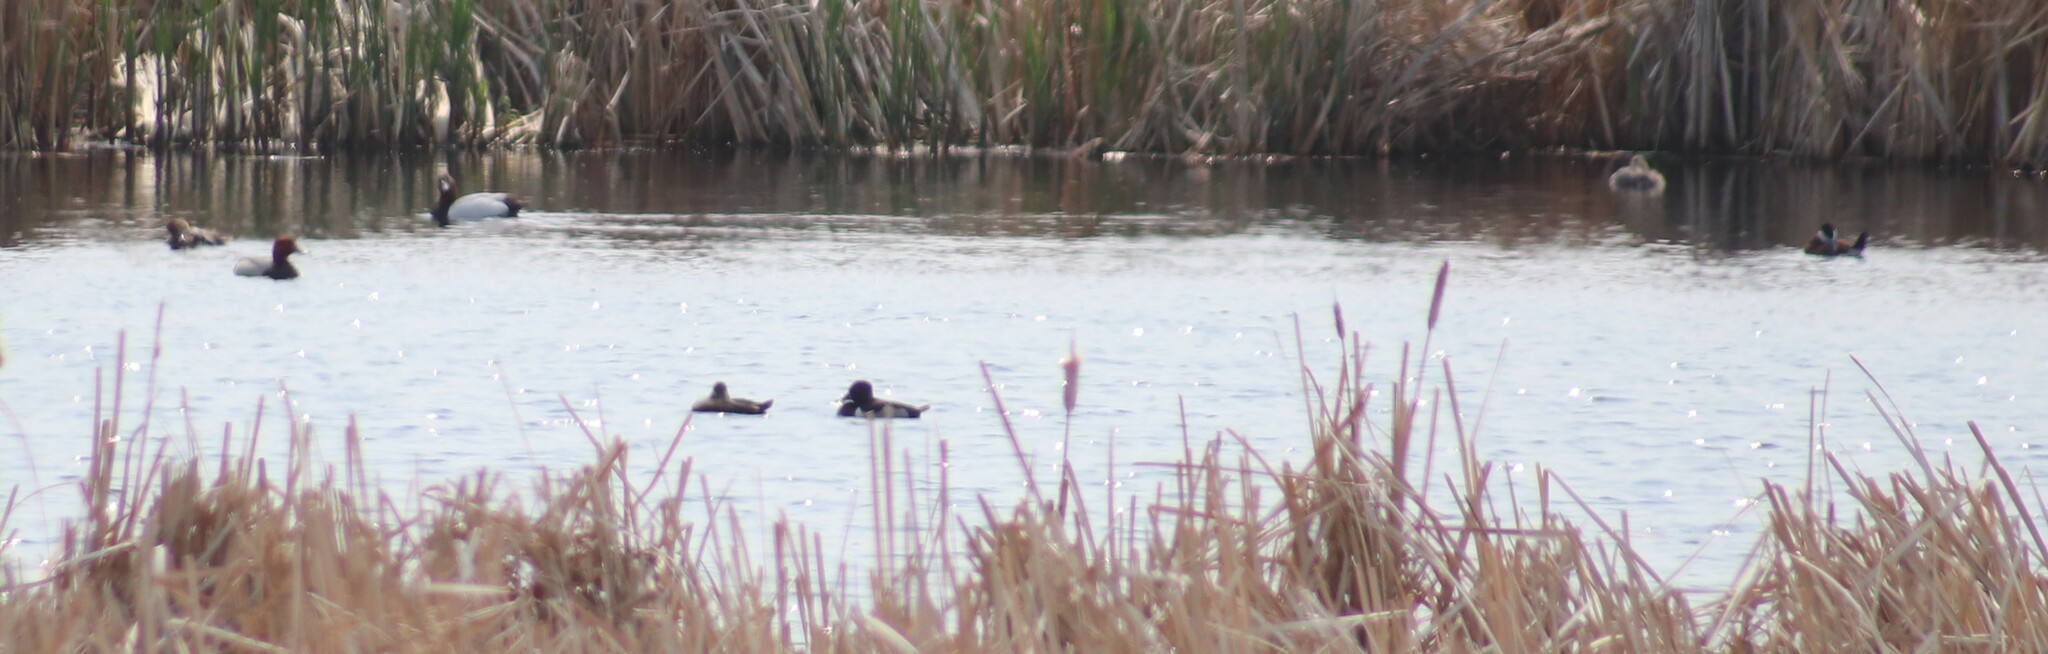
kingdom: Animalia
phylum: Chordata
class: Aves
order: Anseriformes
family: Anatidae
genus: Oxyura
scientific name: Oxyura jamaicensis
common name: Ruddy duck
